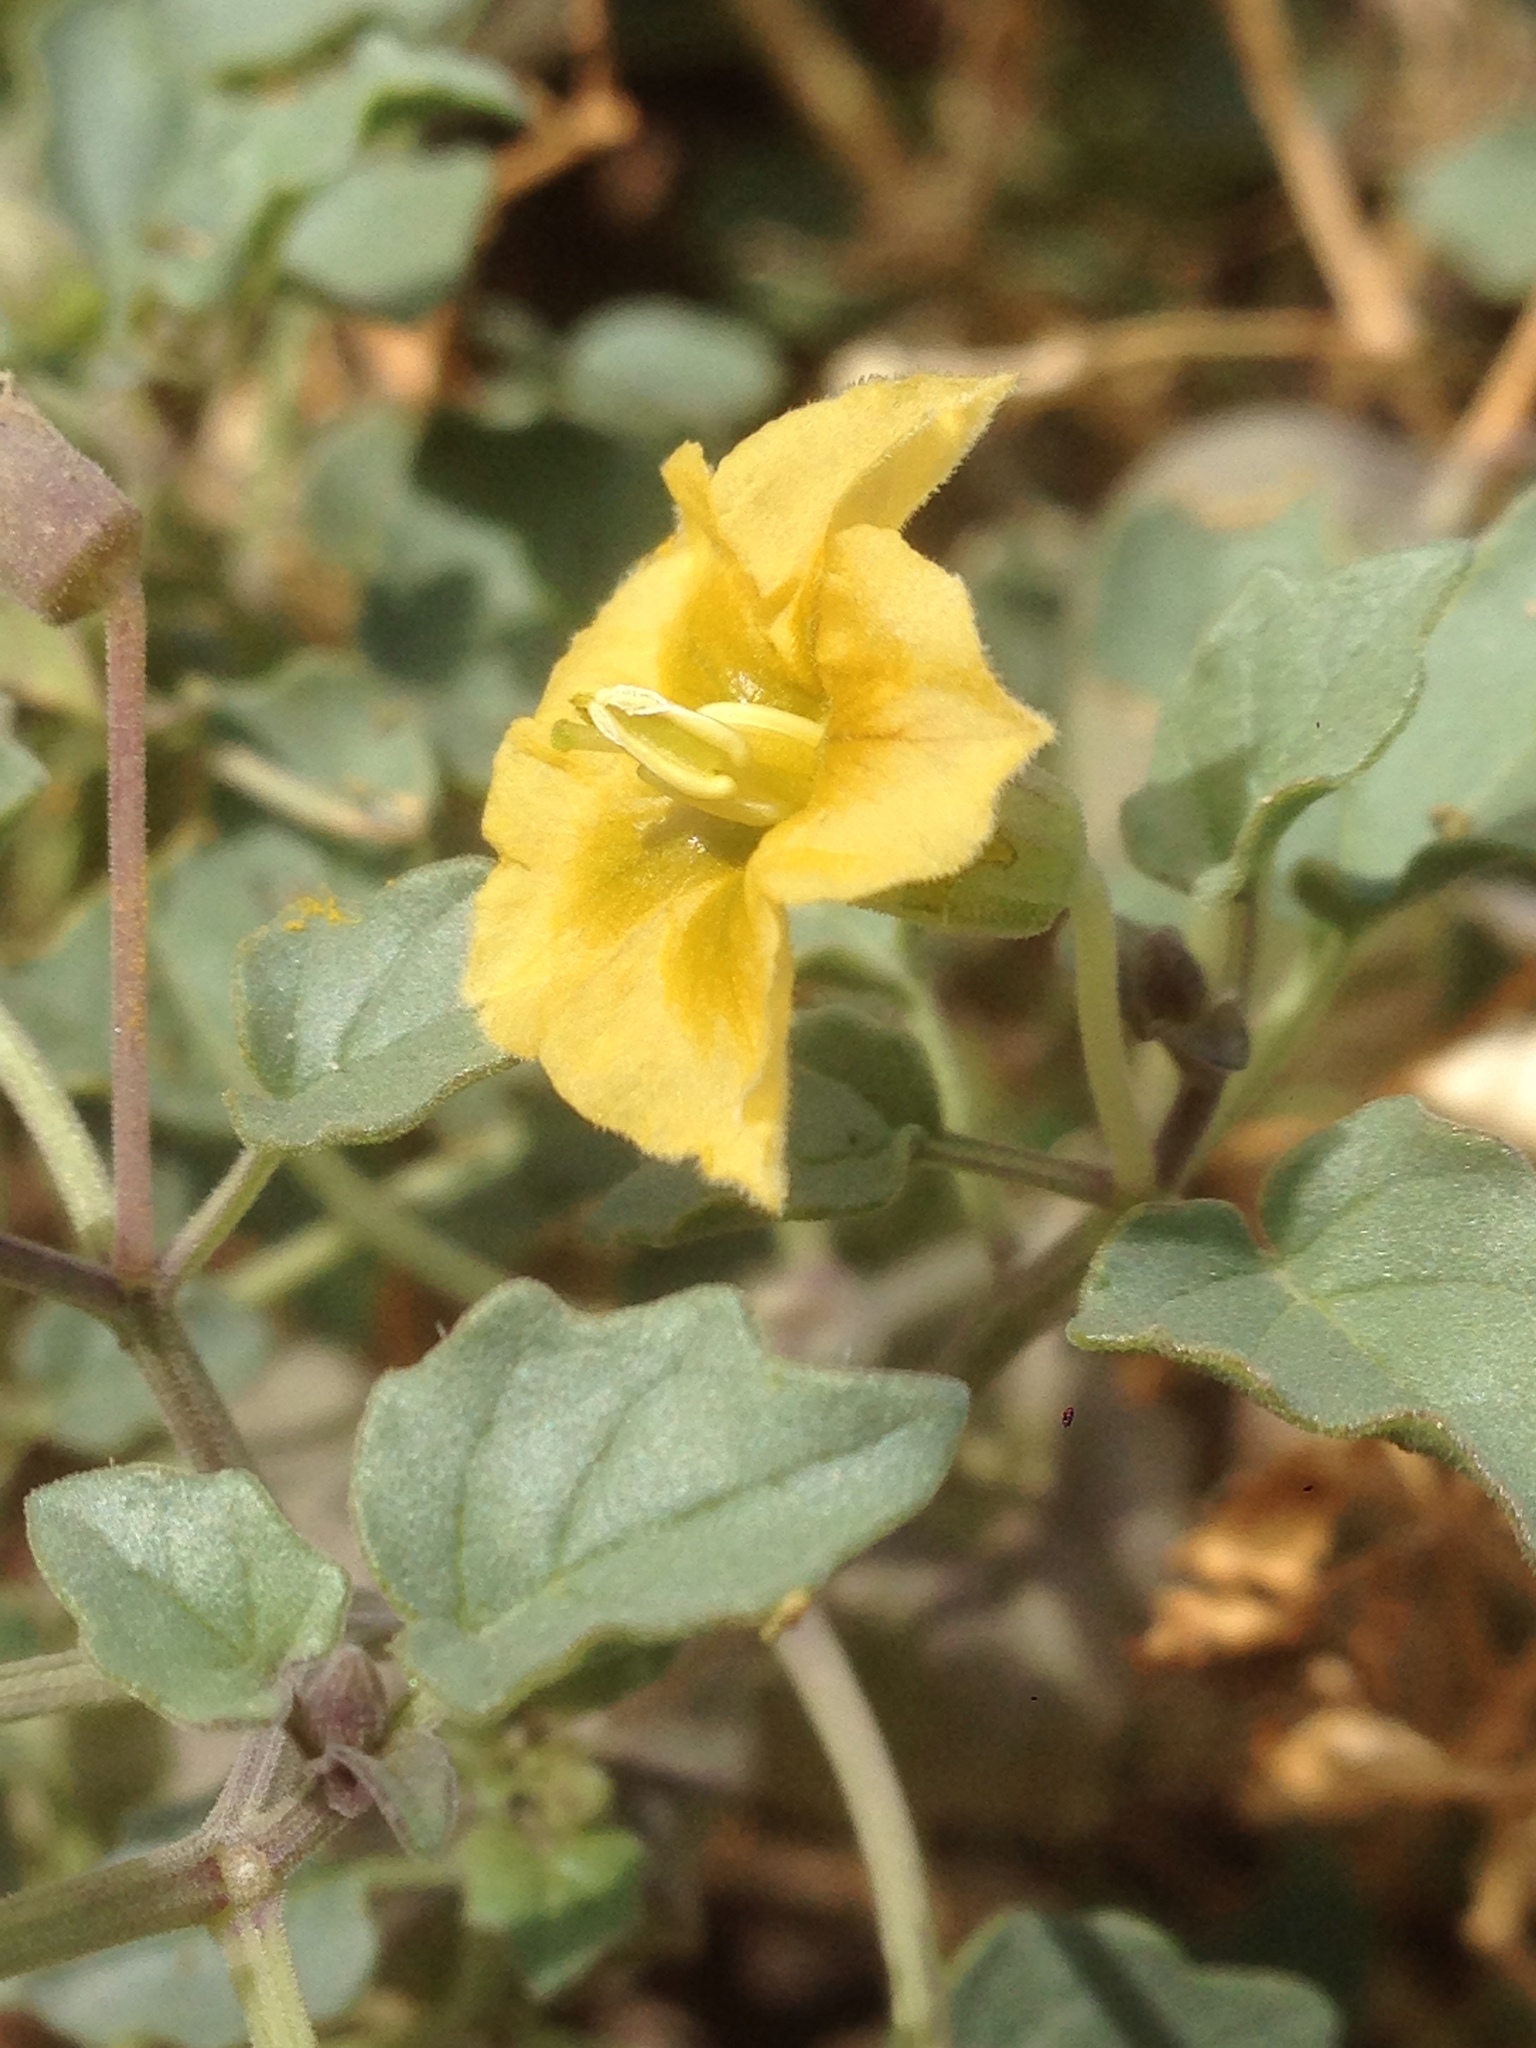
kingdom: Plantae
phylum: Tracheophyta
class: Magnoliopsida
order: Solanales
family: Solanaceae
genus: Physalis
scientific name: Physalis crassifolia
